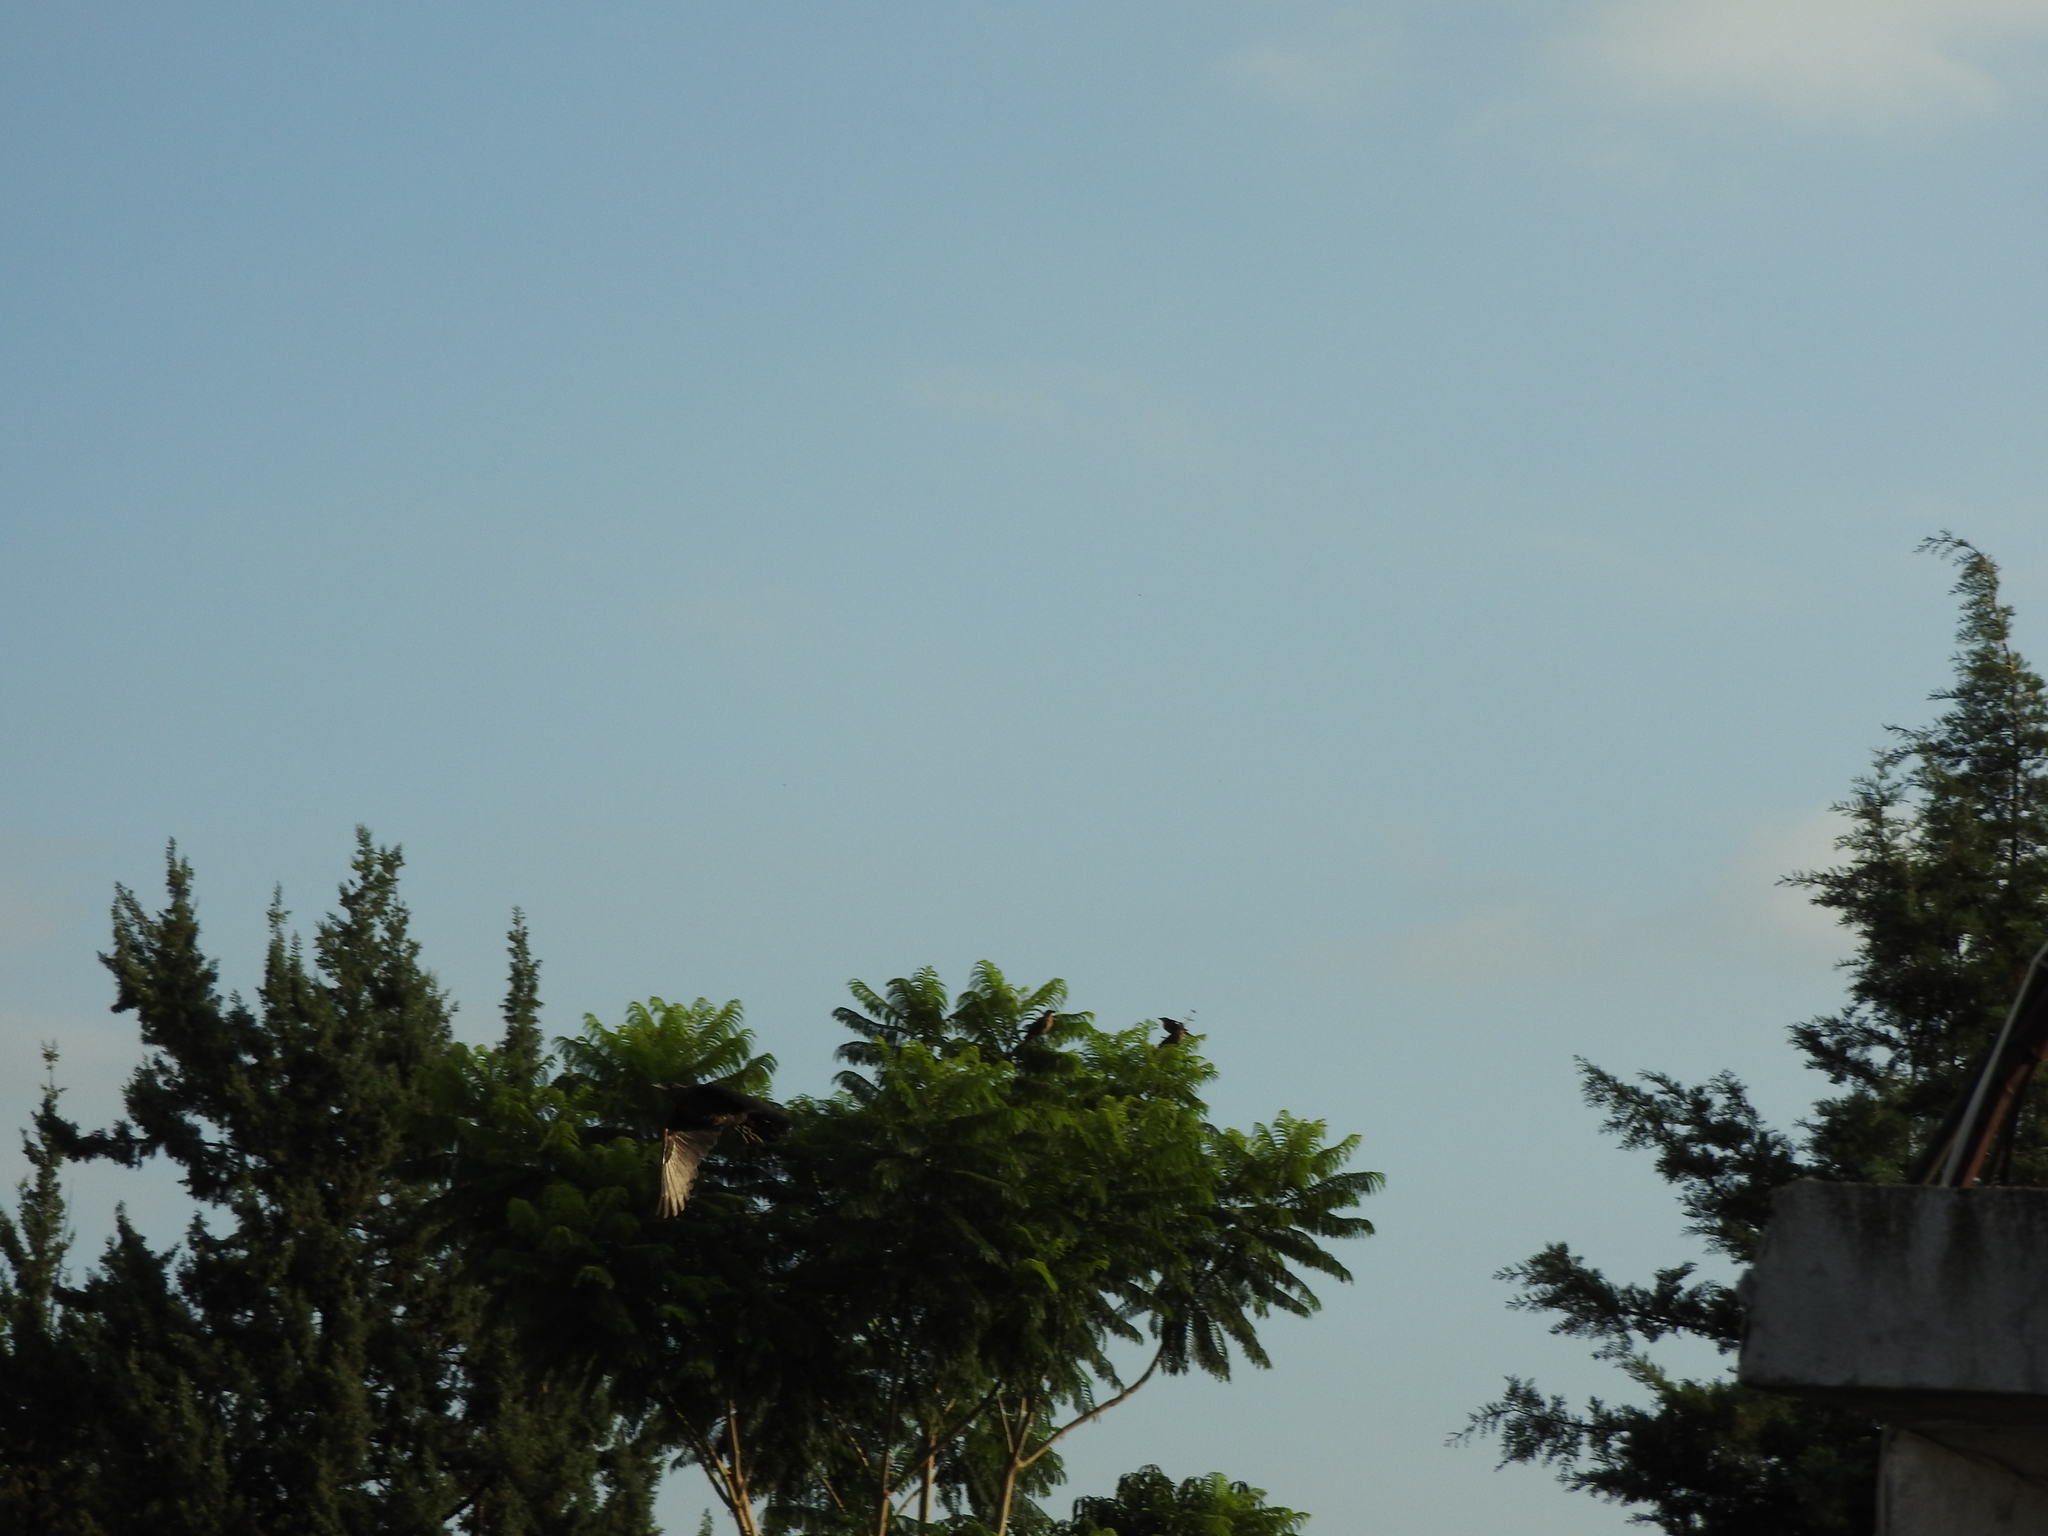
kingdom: Animalia
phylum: Chordata
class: Aves
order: Passeriformes
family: Icteridae
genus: Quiscalus
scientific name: Quiscalus mexicanus
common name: Great-tailed grackle
